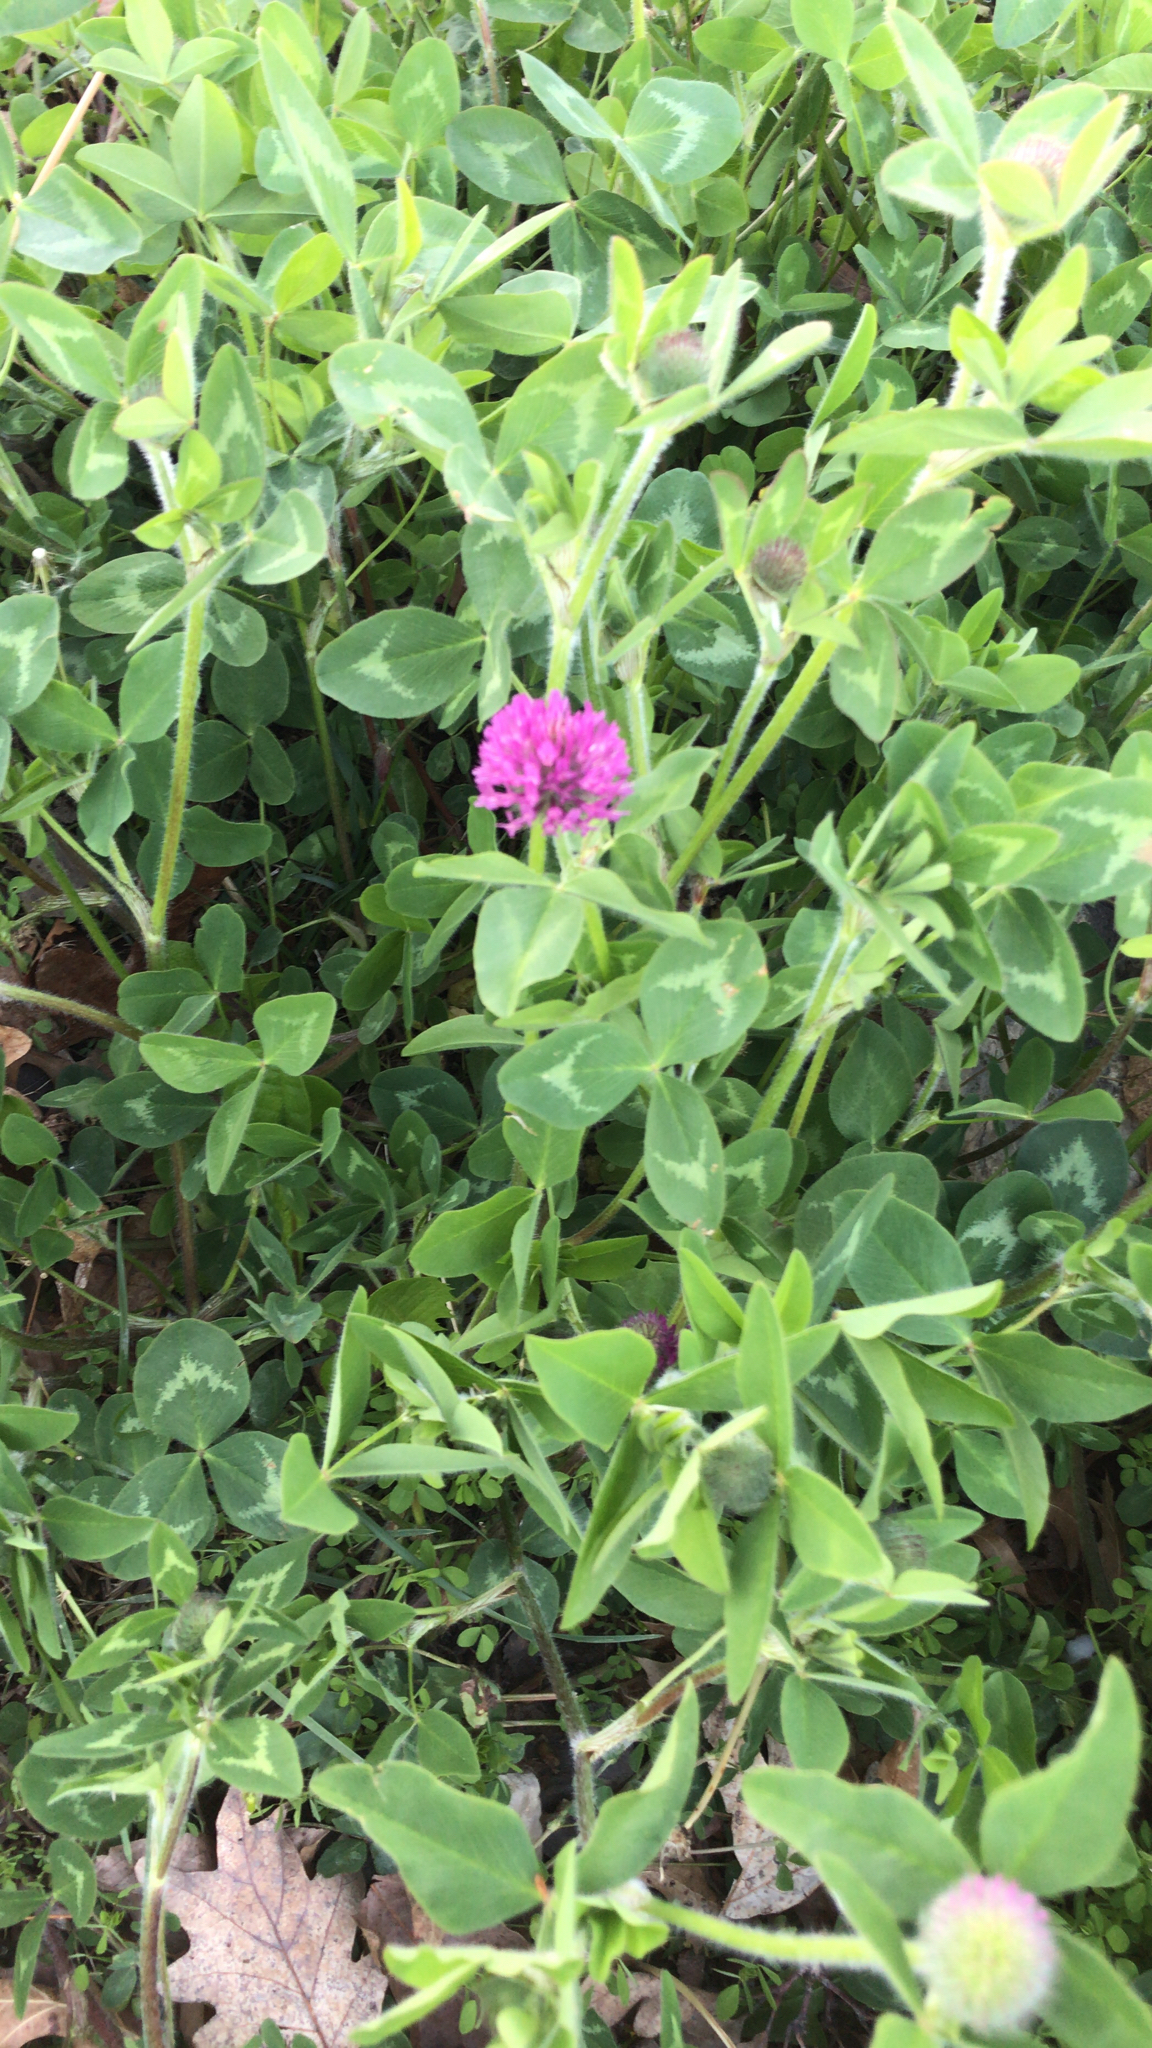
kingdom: Plantae
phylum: Tracheophyta
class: Magnoliopsida
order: Fabales
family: Fabaceae
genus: Trifolium
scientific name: Trifolium pratense
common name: Red clover
